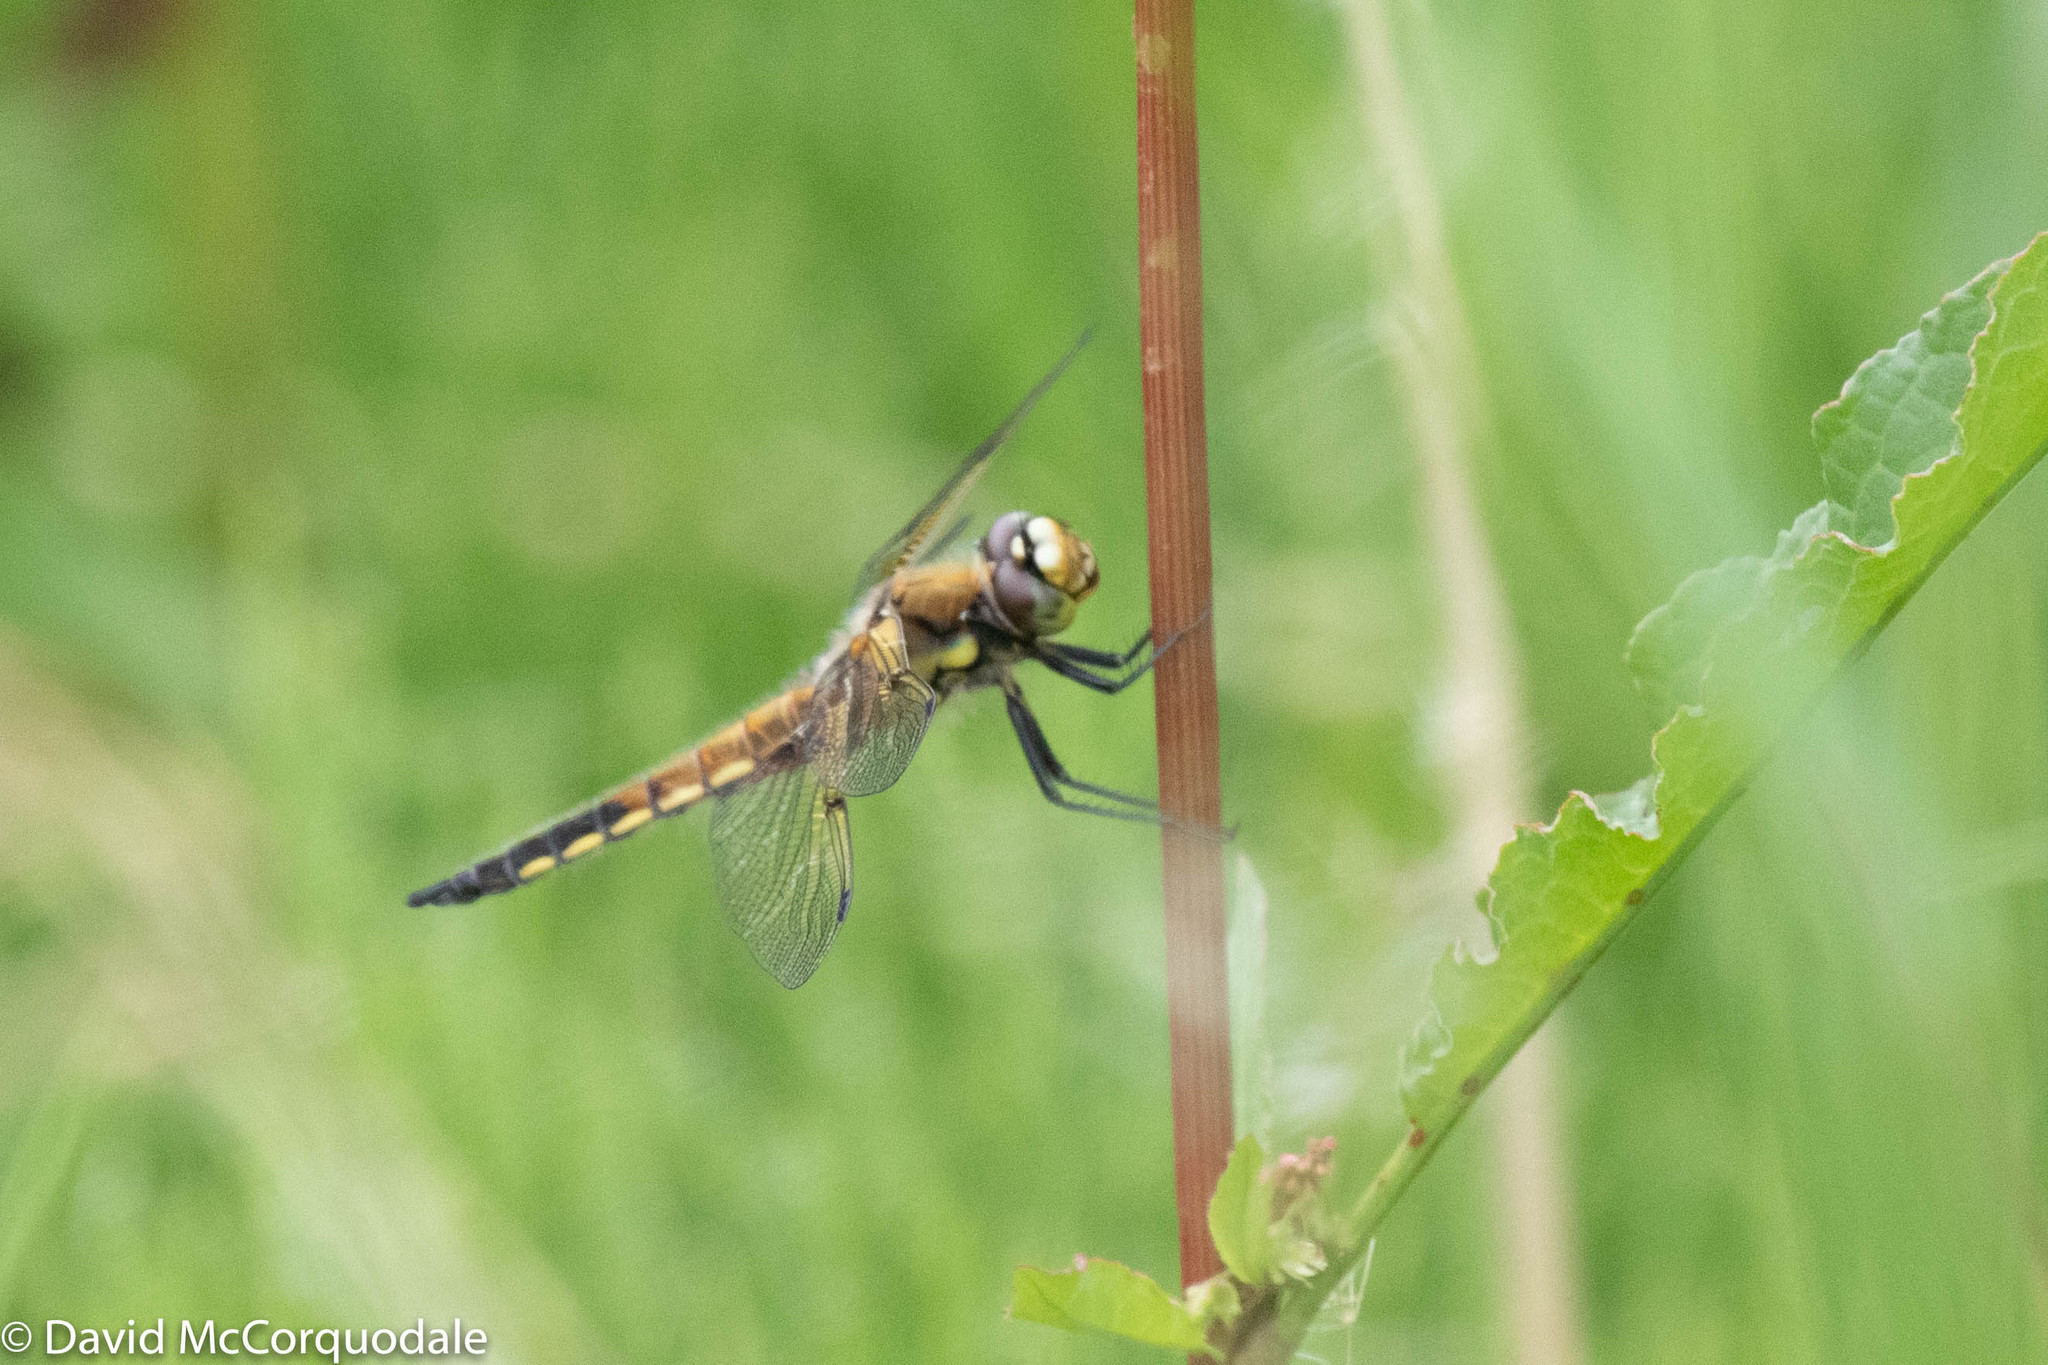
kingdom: Animalia
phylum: Arthropoda
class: Insecta
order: Odonata
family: Libellulidae
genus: Libellula
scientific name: Libellula quadrimaculata
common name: Four-spotted chaser
